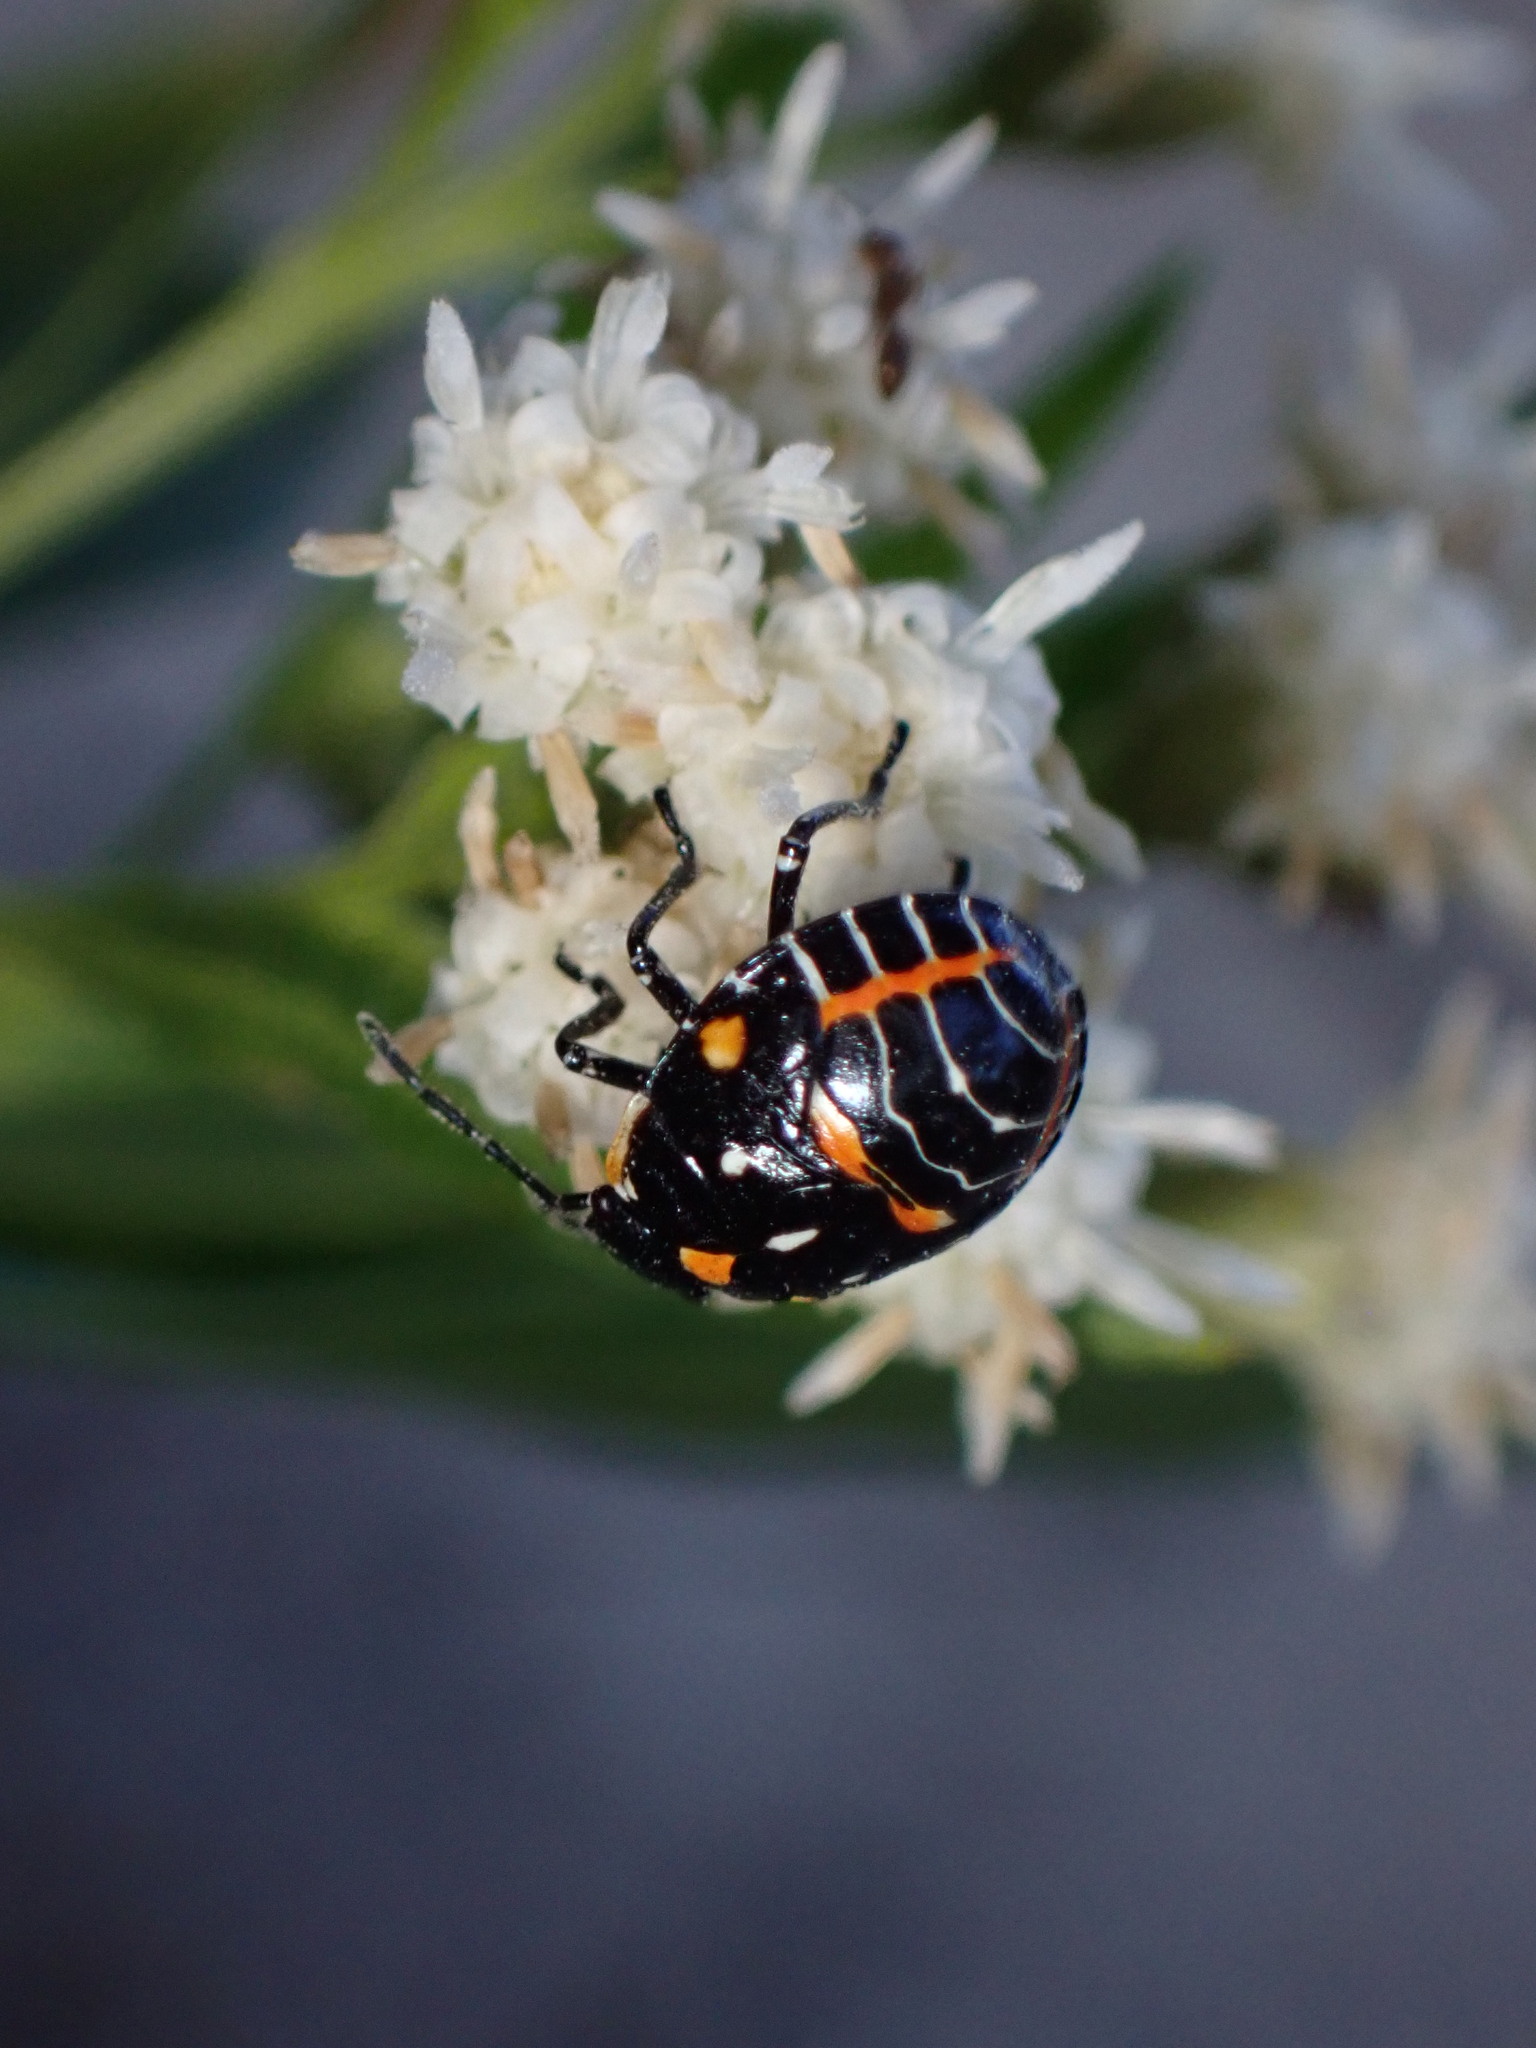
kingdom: Animalia
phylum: Arthropoda
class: Insecta
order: Hemiptera
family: Pentatomidae
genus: Murgantia
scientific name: Murgantia histrionica
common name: Harlequin bug
